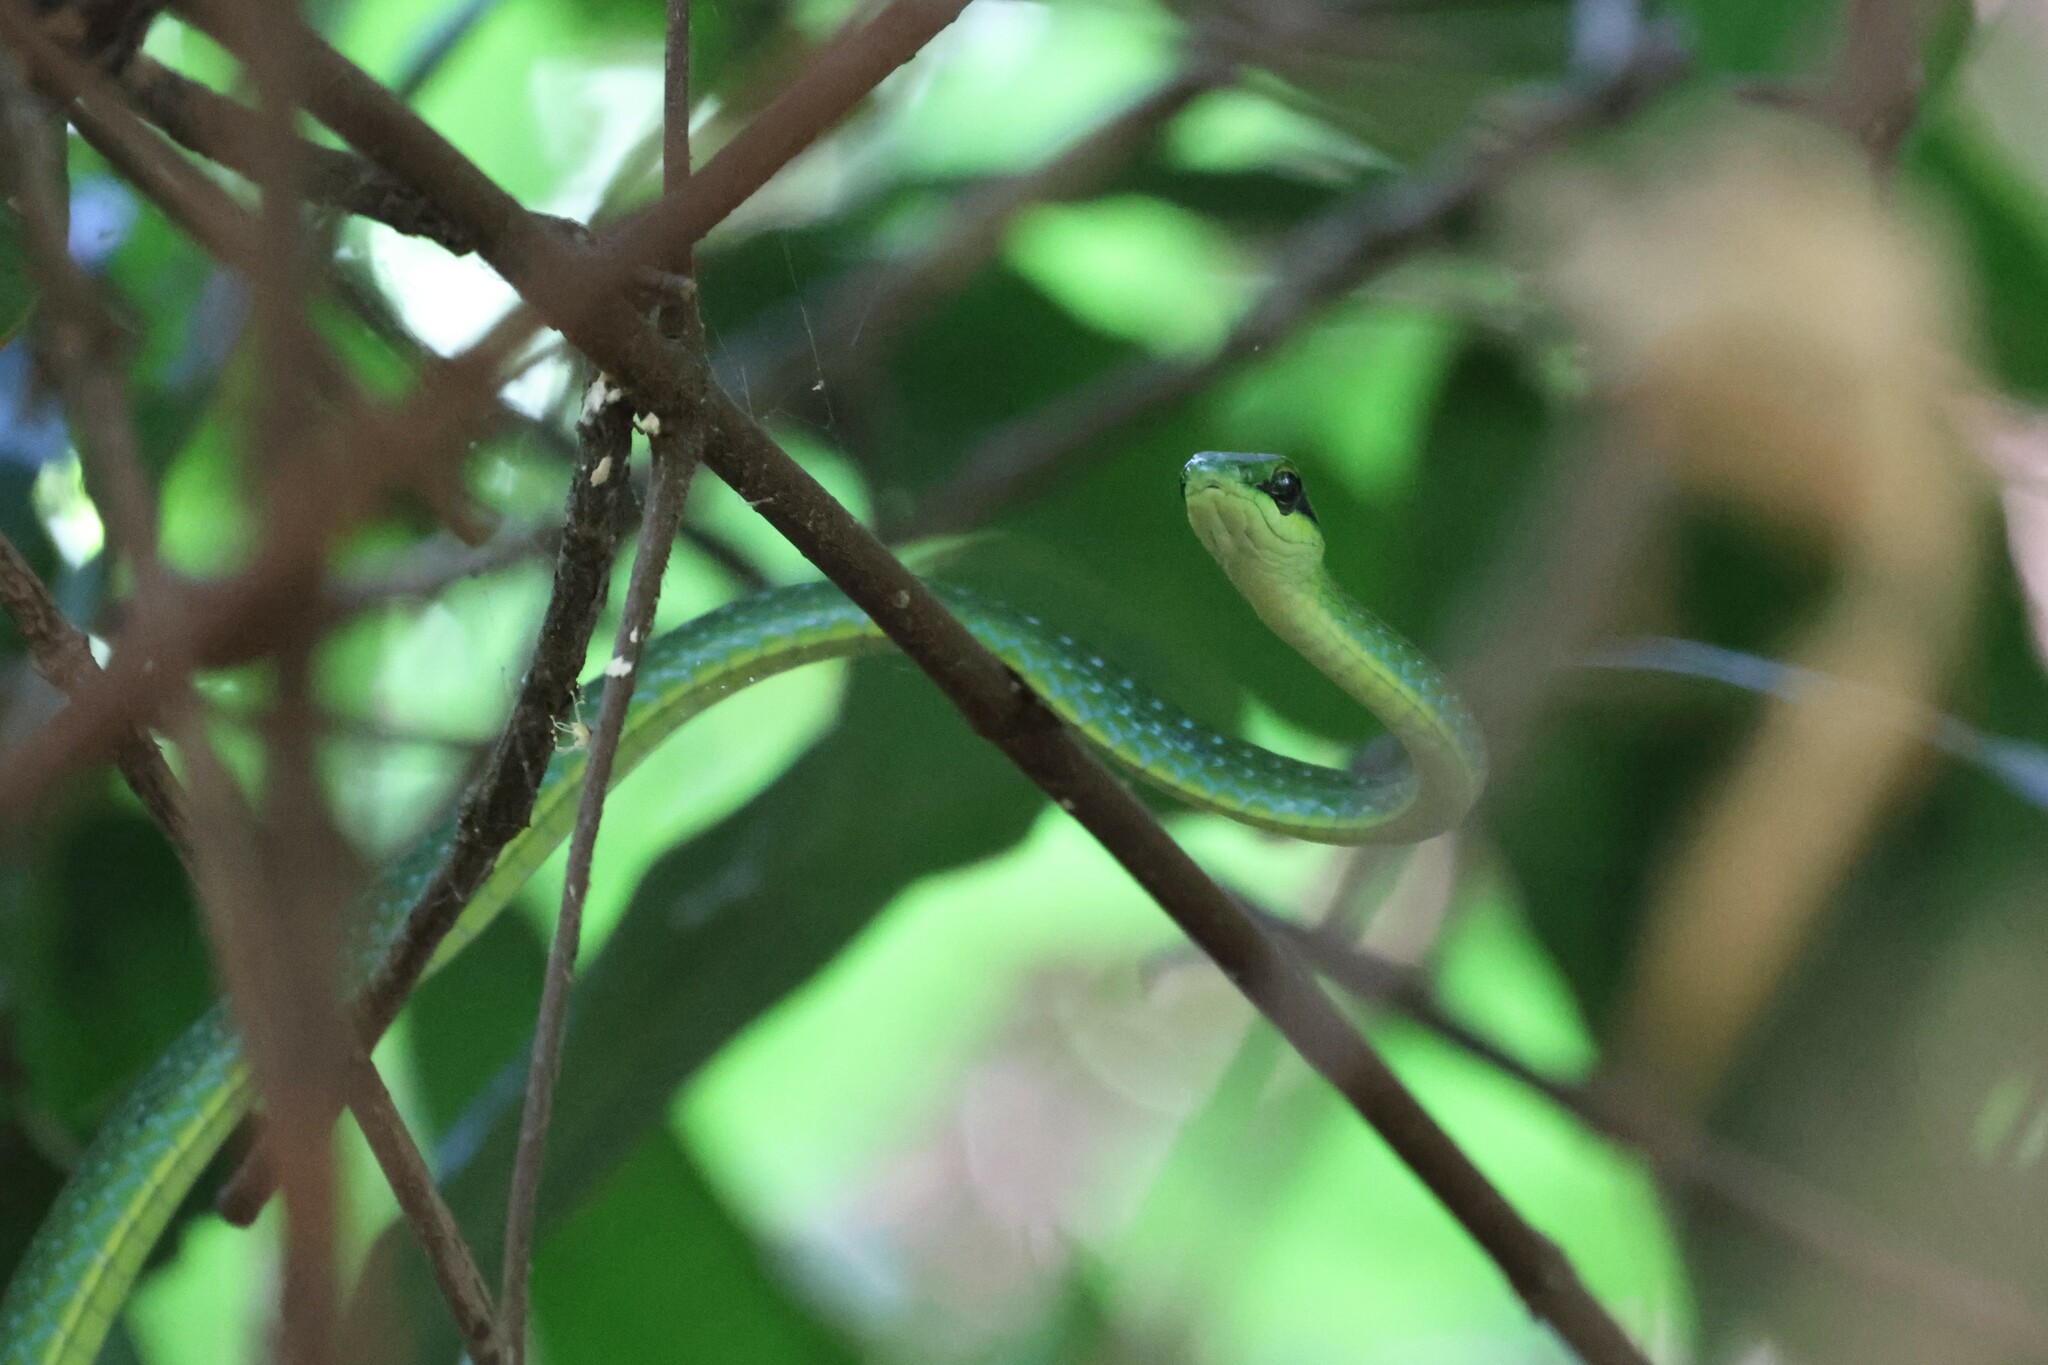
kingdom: Animalia
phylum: Chordata
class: Squamata
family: Colubridae
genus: Hapsidophrys
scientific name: Hapsidophrys smaragdinus
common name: Emerald snake
